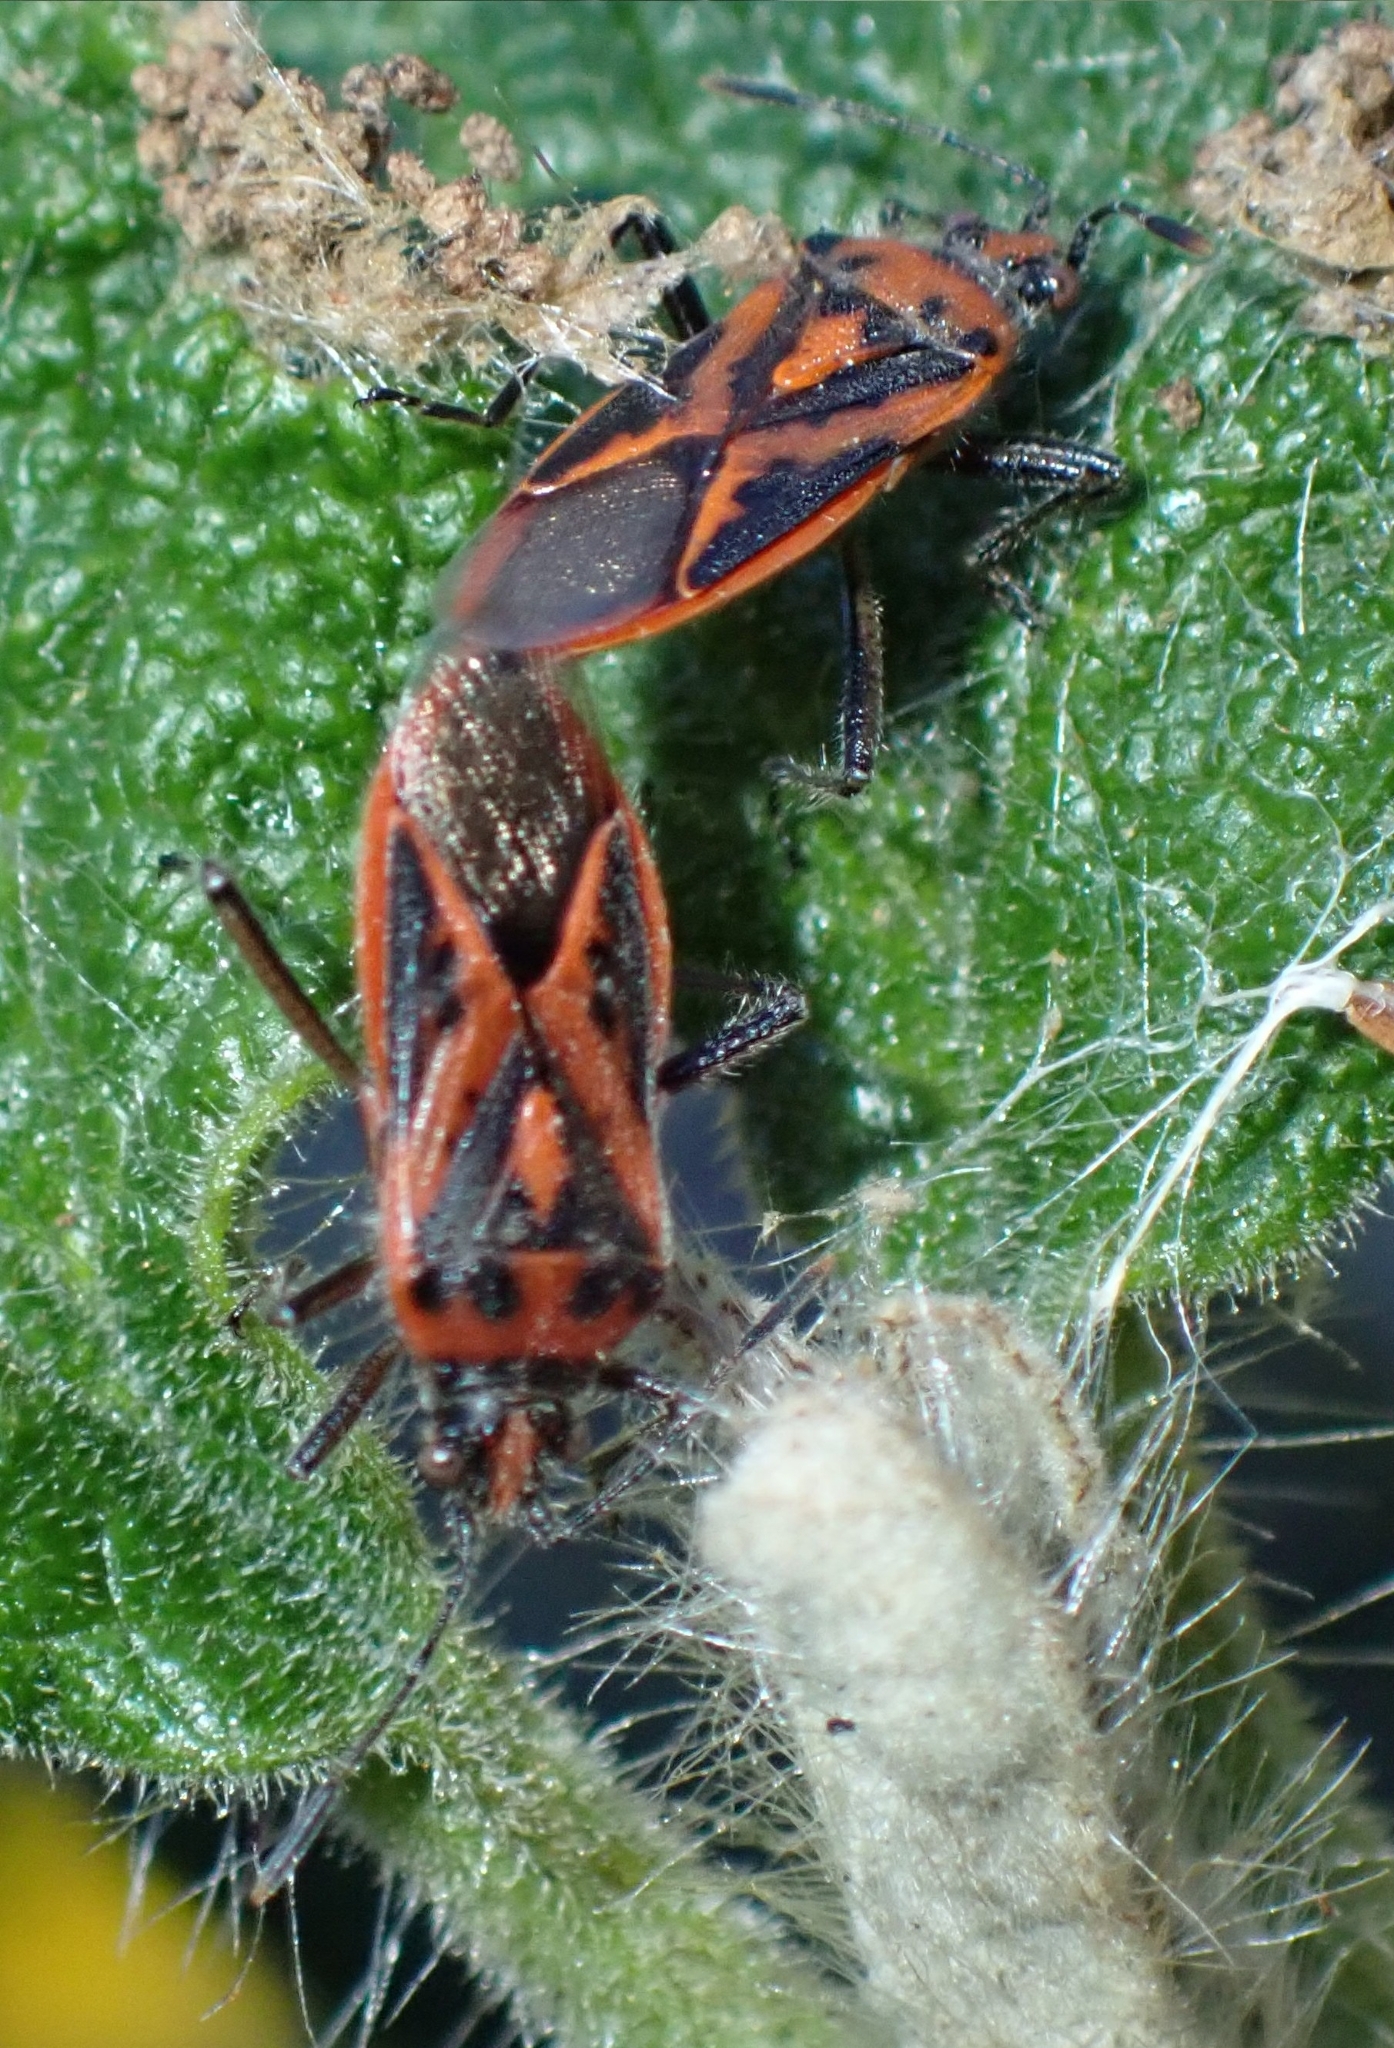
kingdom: Animalia
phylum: Arthropoda
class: Insecta
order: Hemiptera
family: Rhopalidae
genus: Corizus
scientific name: Corizus hyoscyami
